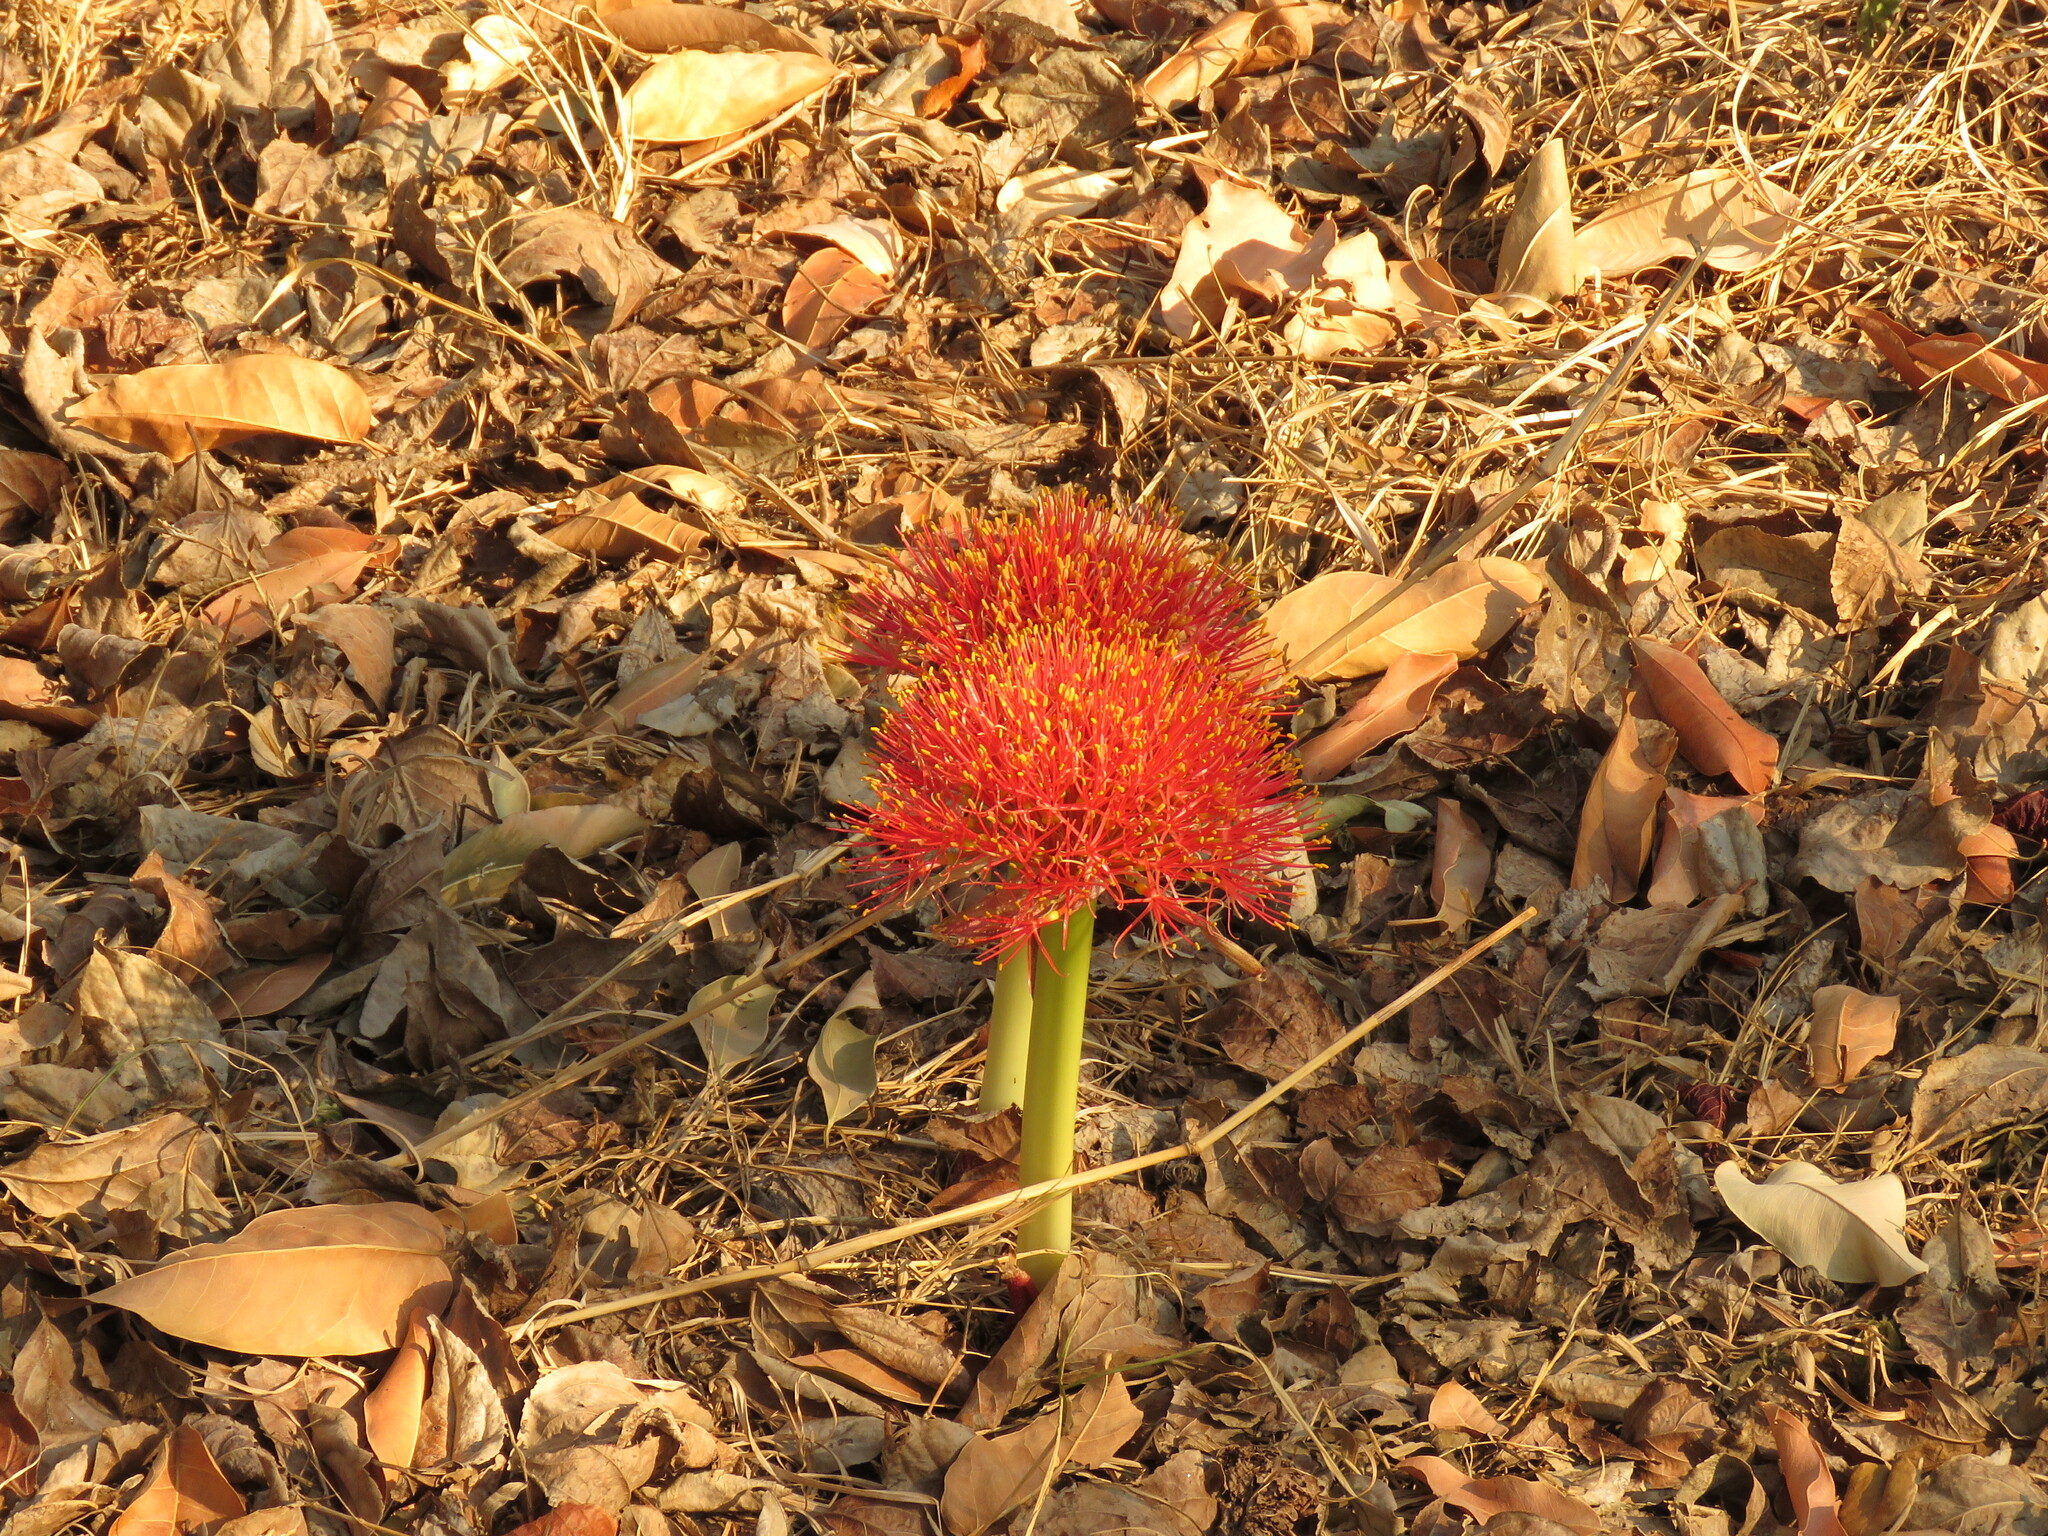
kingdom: Plantae
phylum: Tracheophyta
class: Liliopsida
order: Asparagales
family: Amaryllidaceae
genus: Scadoxus
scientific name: Scadoxus multiflorus
